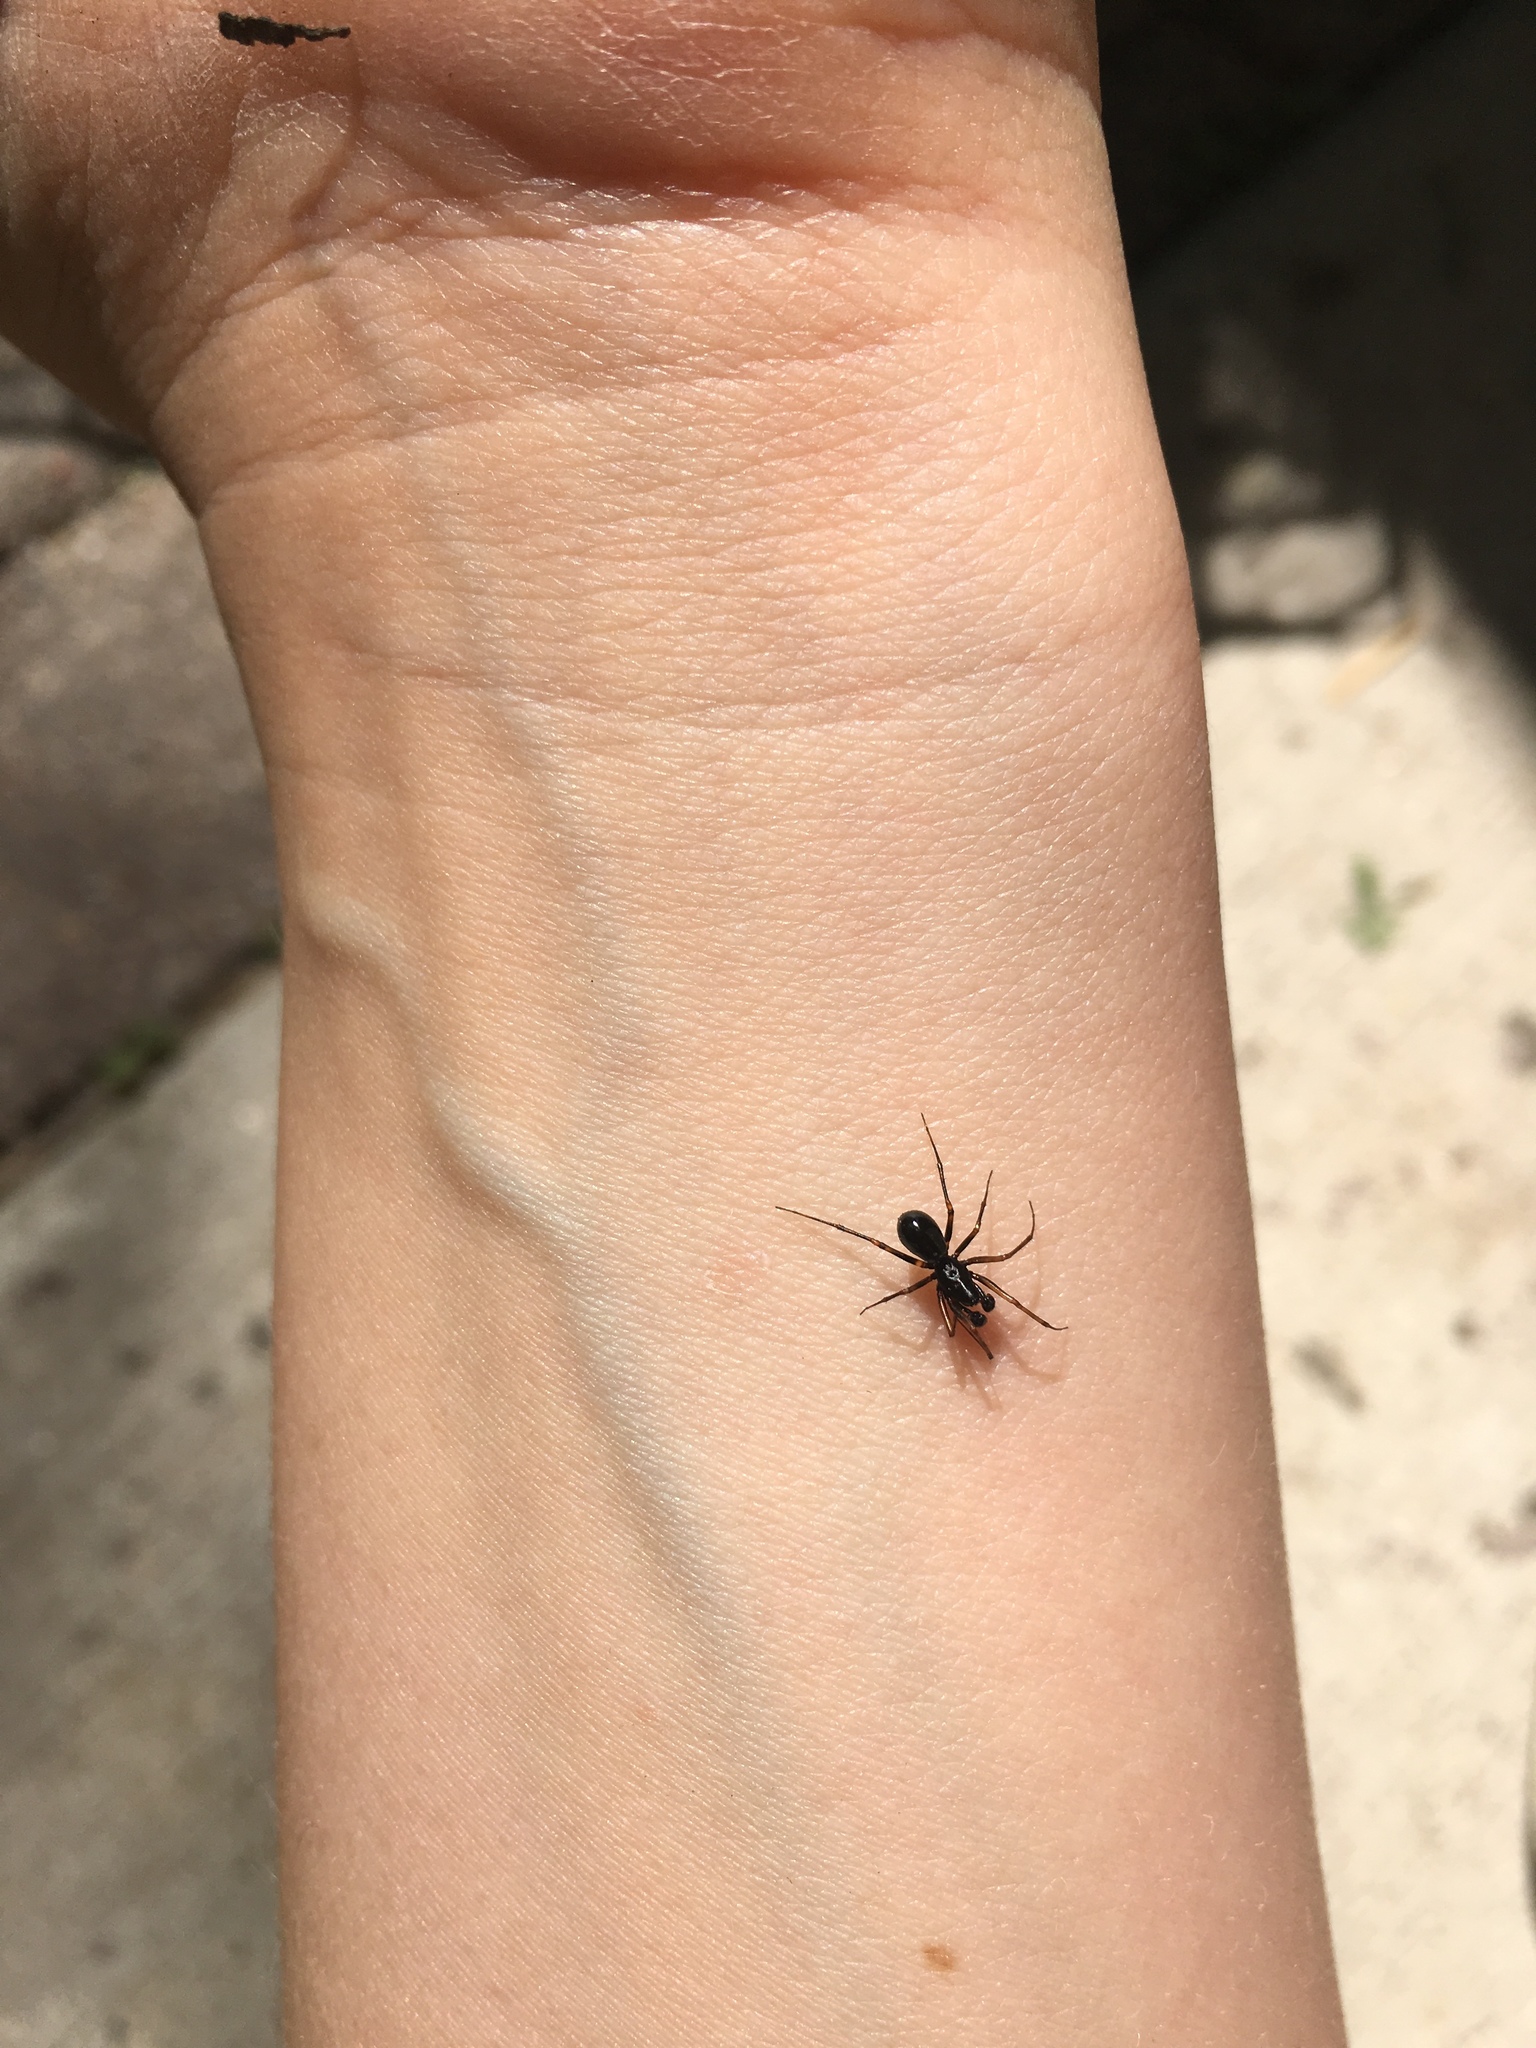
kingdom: Animalia
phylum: Arthropoda
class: Arachnida
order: Araneae
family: Linyphiidae
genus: Neriene
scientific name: Neriene clathrata
